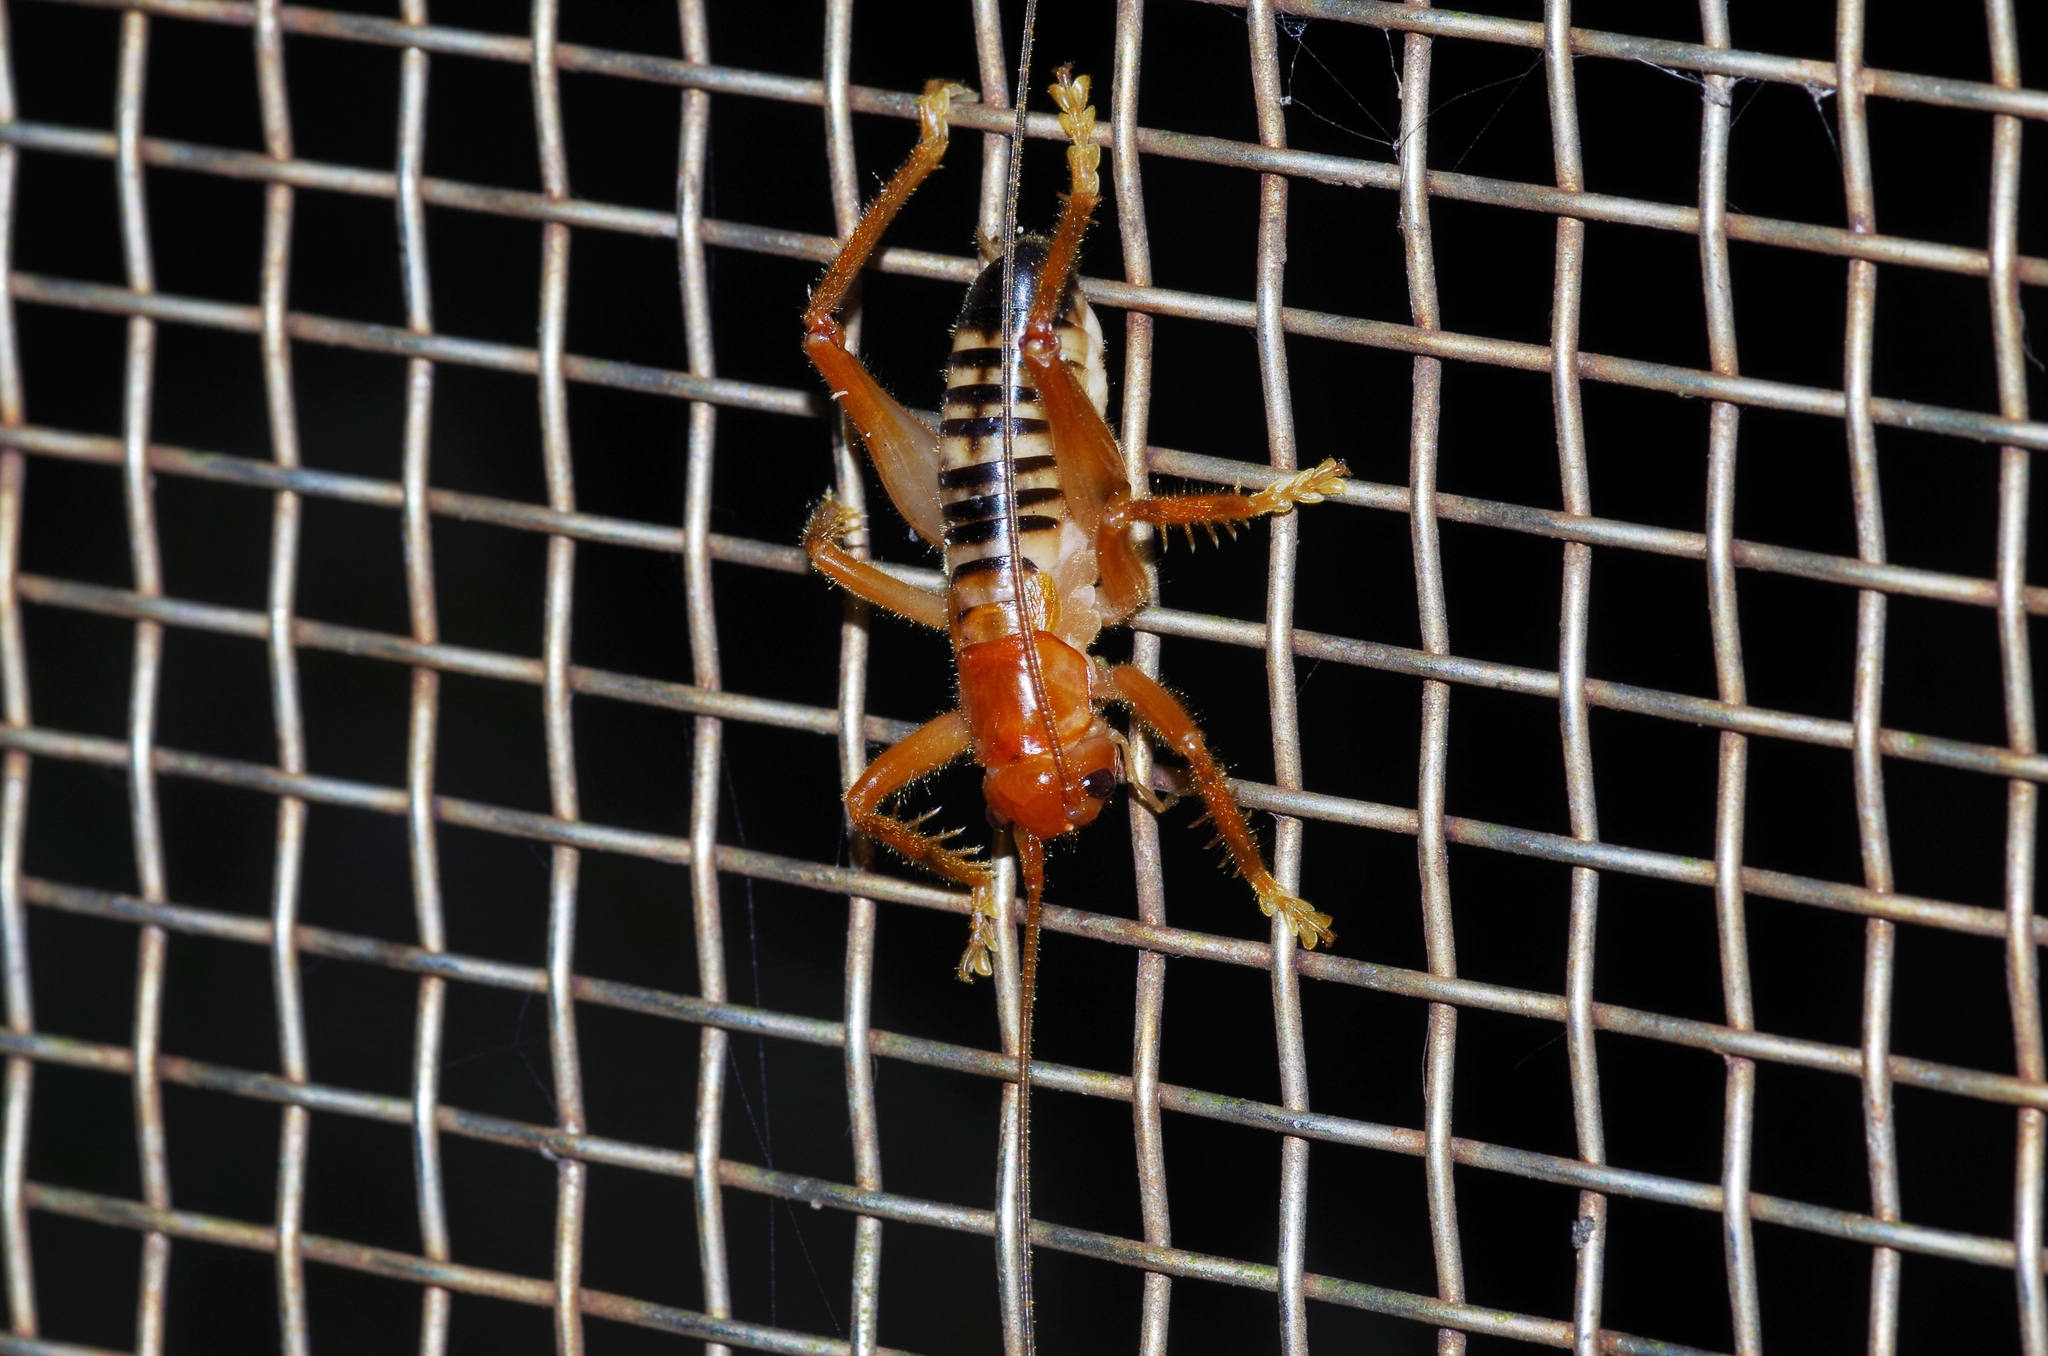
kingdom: Animalia
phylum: Arthropoda
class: Insecta
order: Orthoptera
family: Gryllacrididae
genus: Metriogryllacris
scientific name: Metriogryllacris magna
